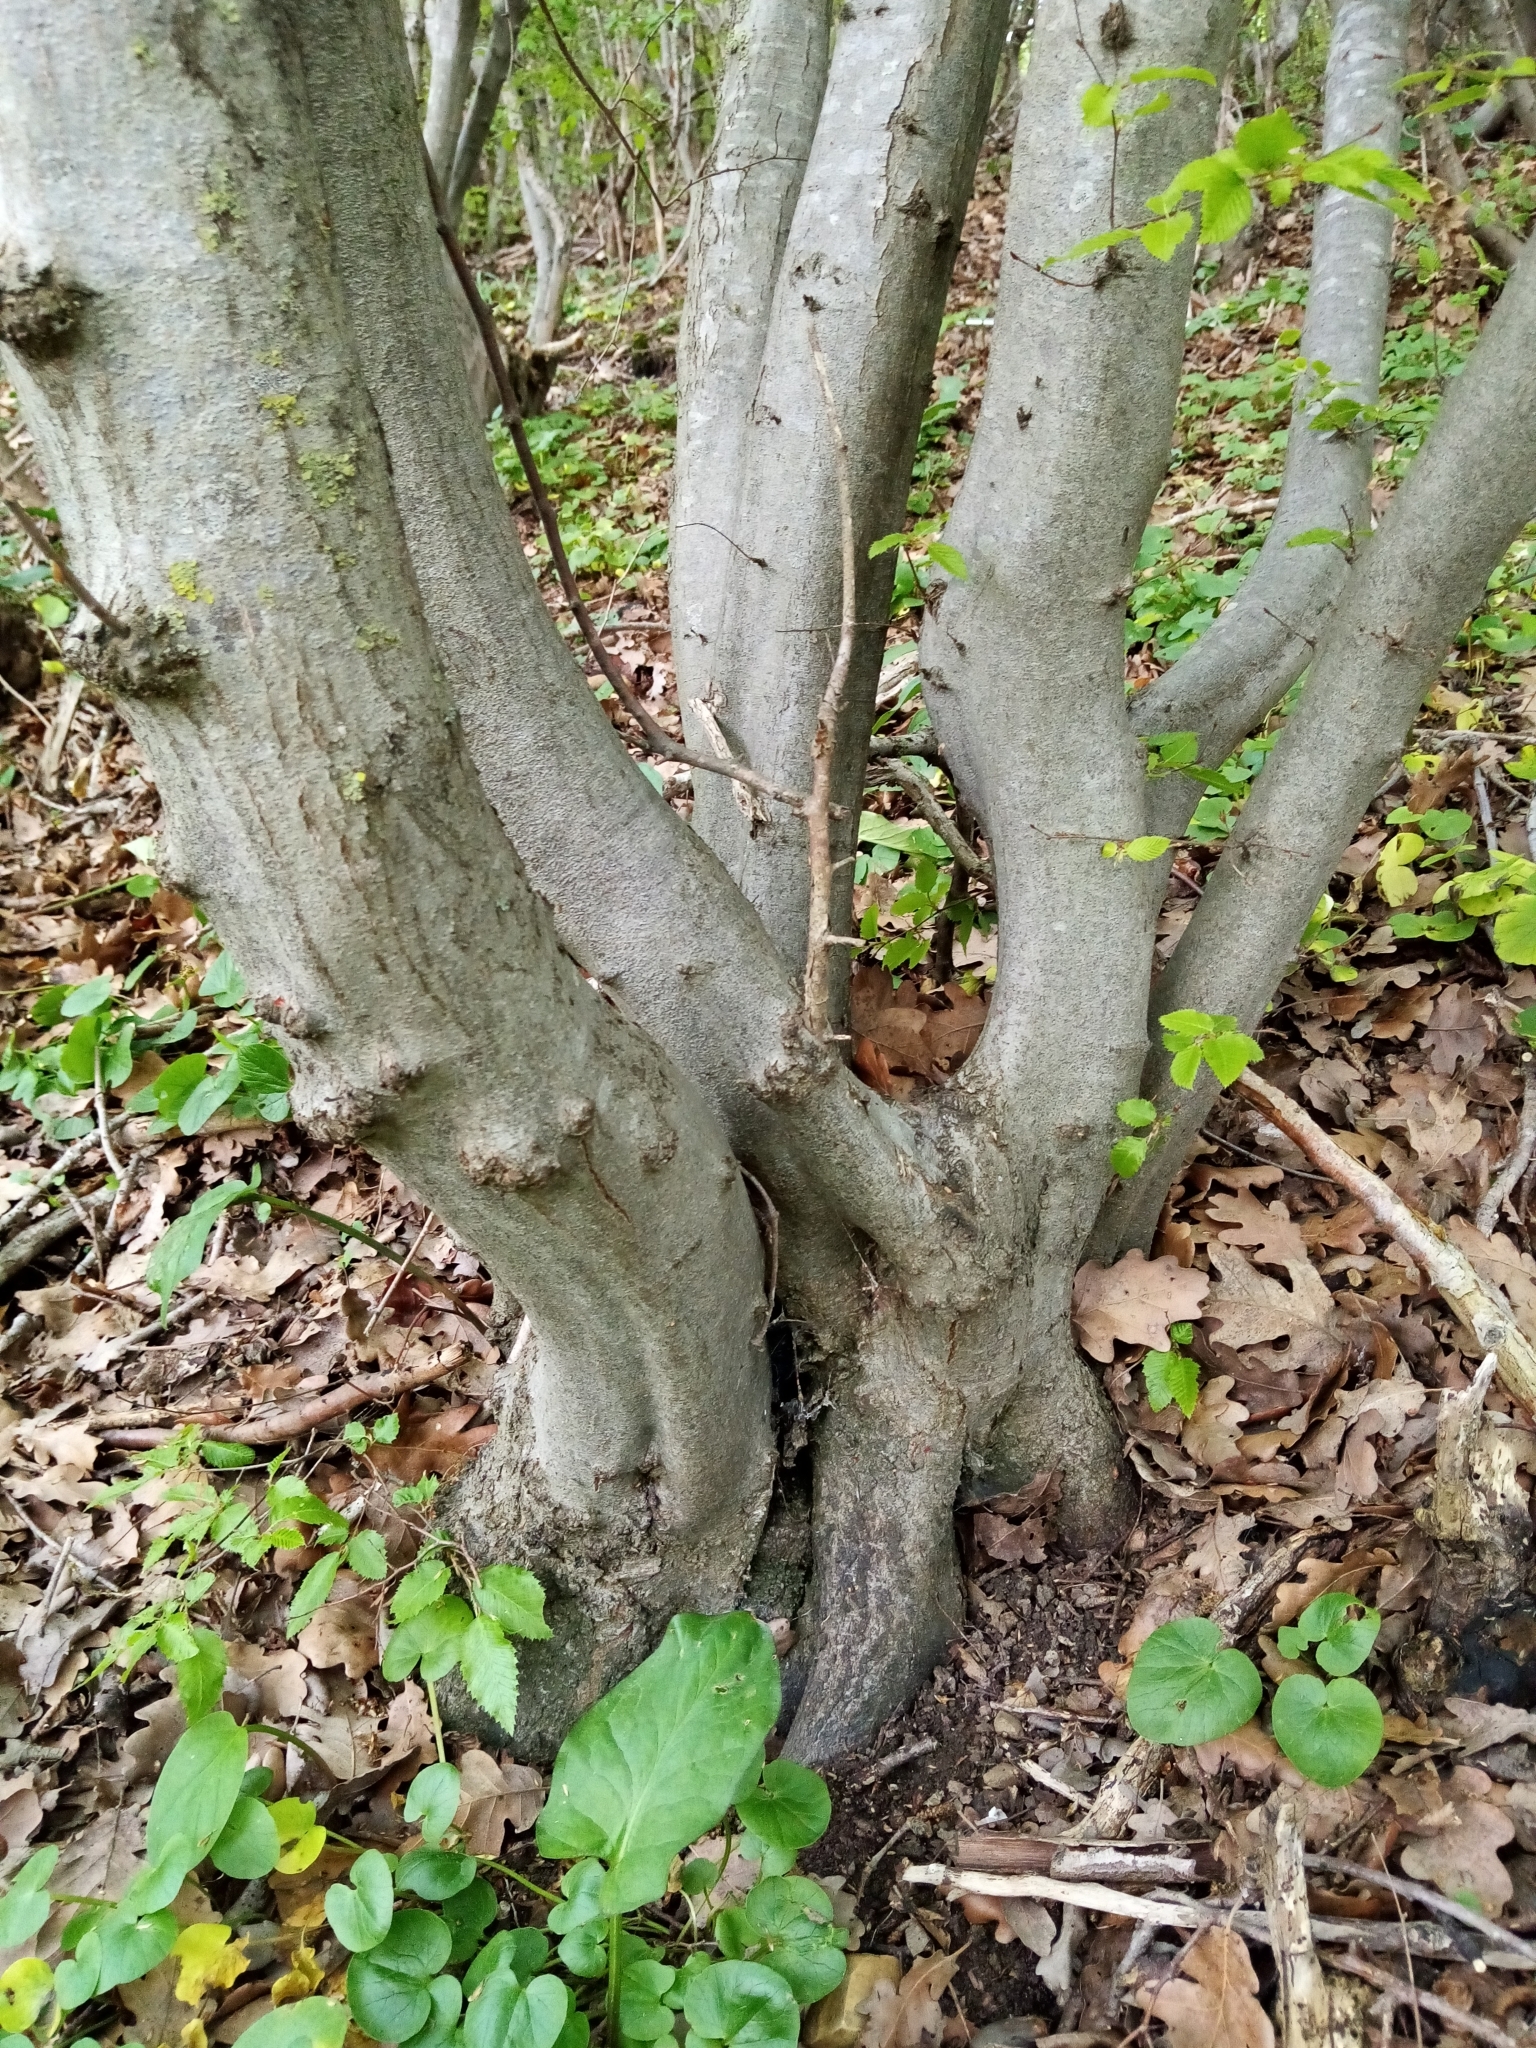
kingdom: Plantae
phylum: Tracheophyta
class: Magnoliopsida
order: Fagales
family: Betulaceae
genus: Carpinus
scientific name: Carpinus orientalis
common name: Eastern hornbeam
